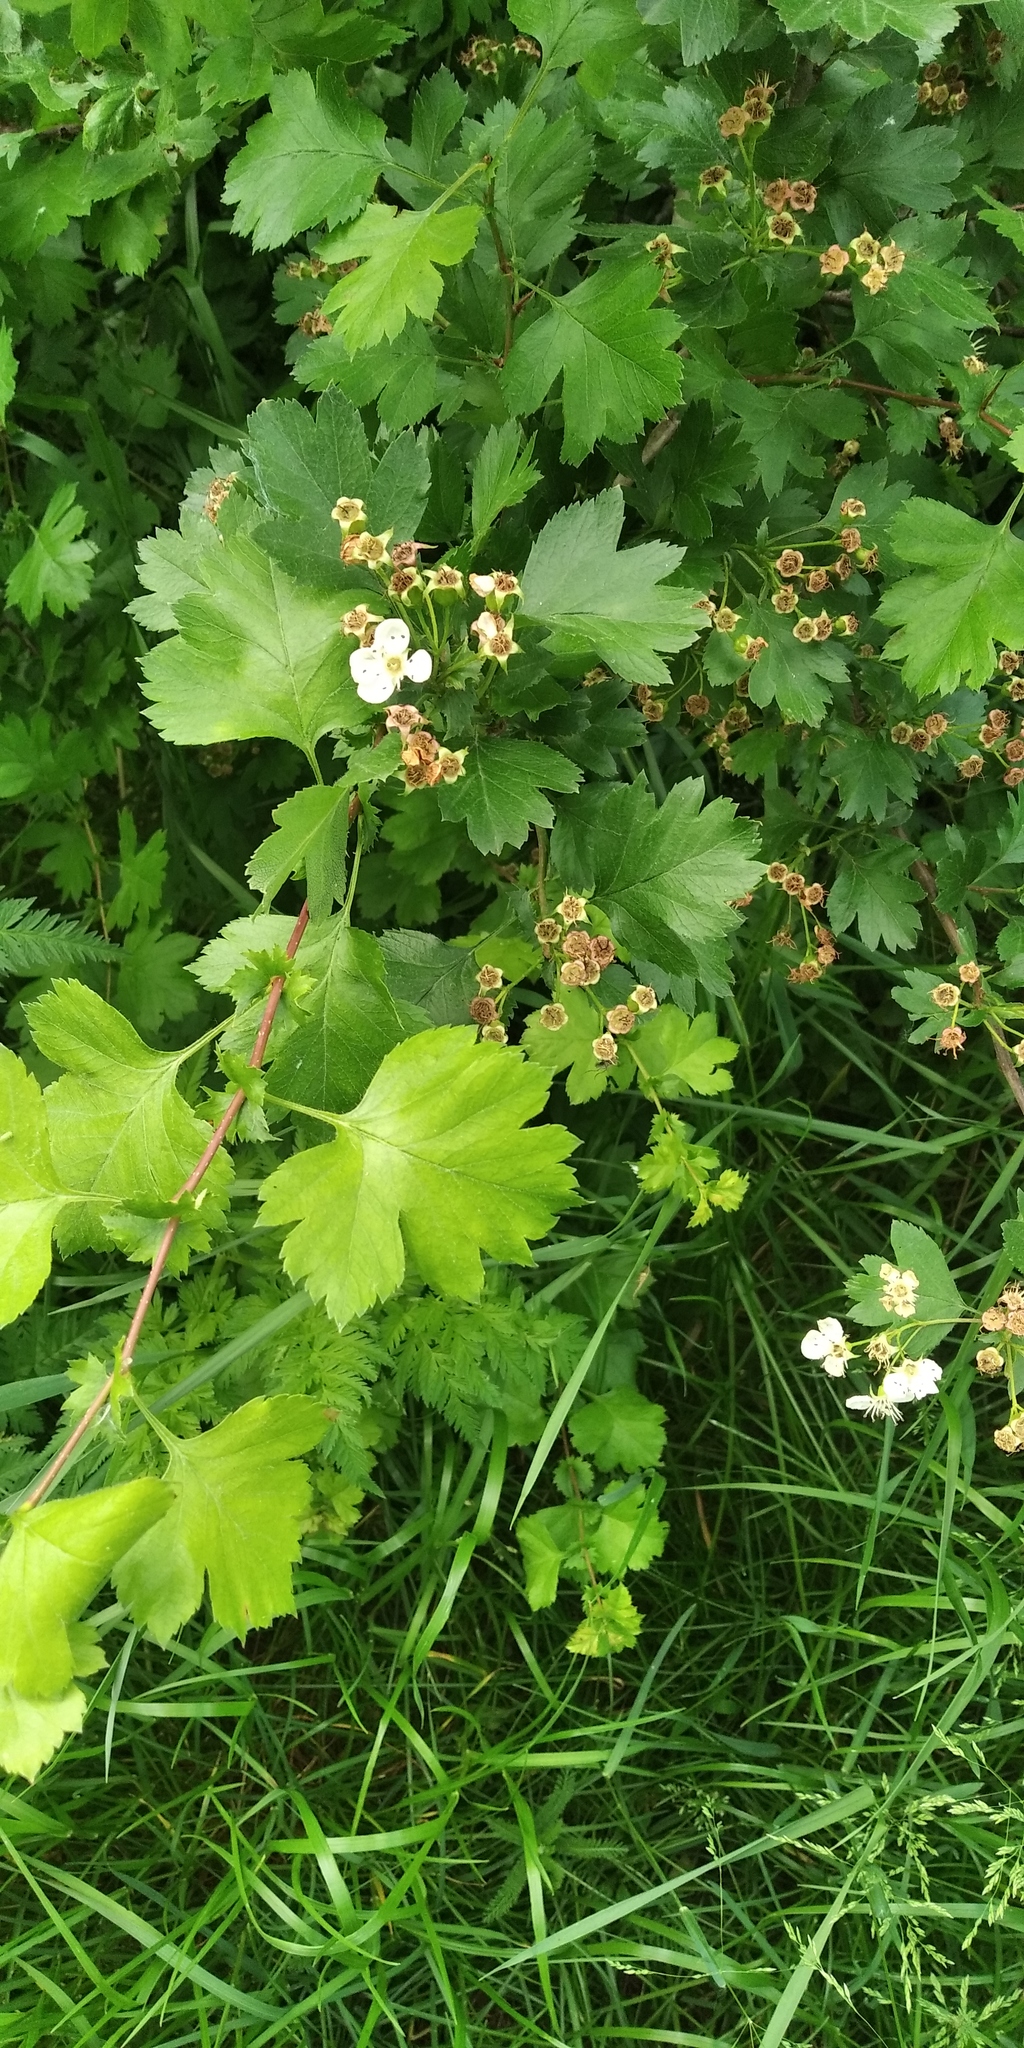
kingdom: Plantae
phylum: Tracheophyta
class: Magnoliopsida
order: Rosales
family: Rosaceae
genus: Crataegus
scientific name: Crataegus rhipidophylla
